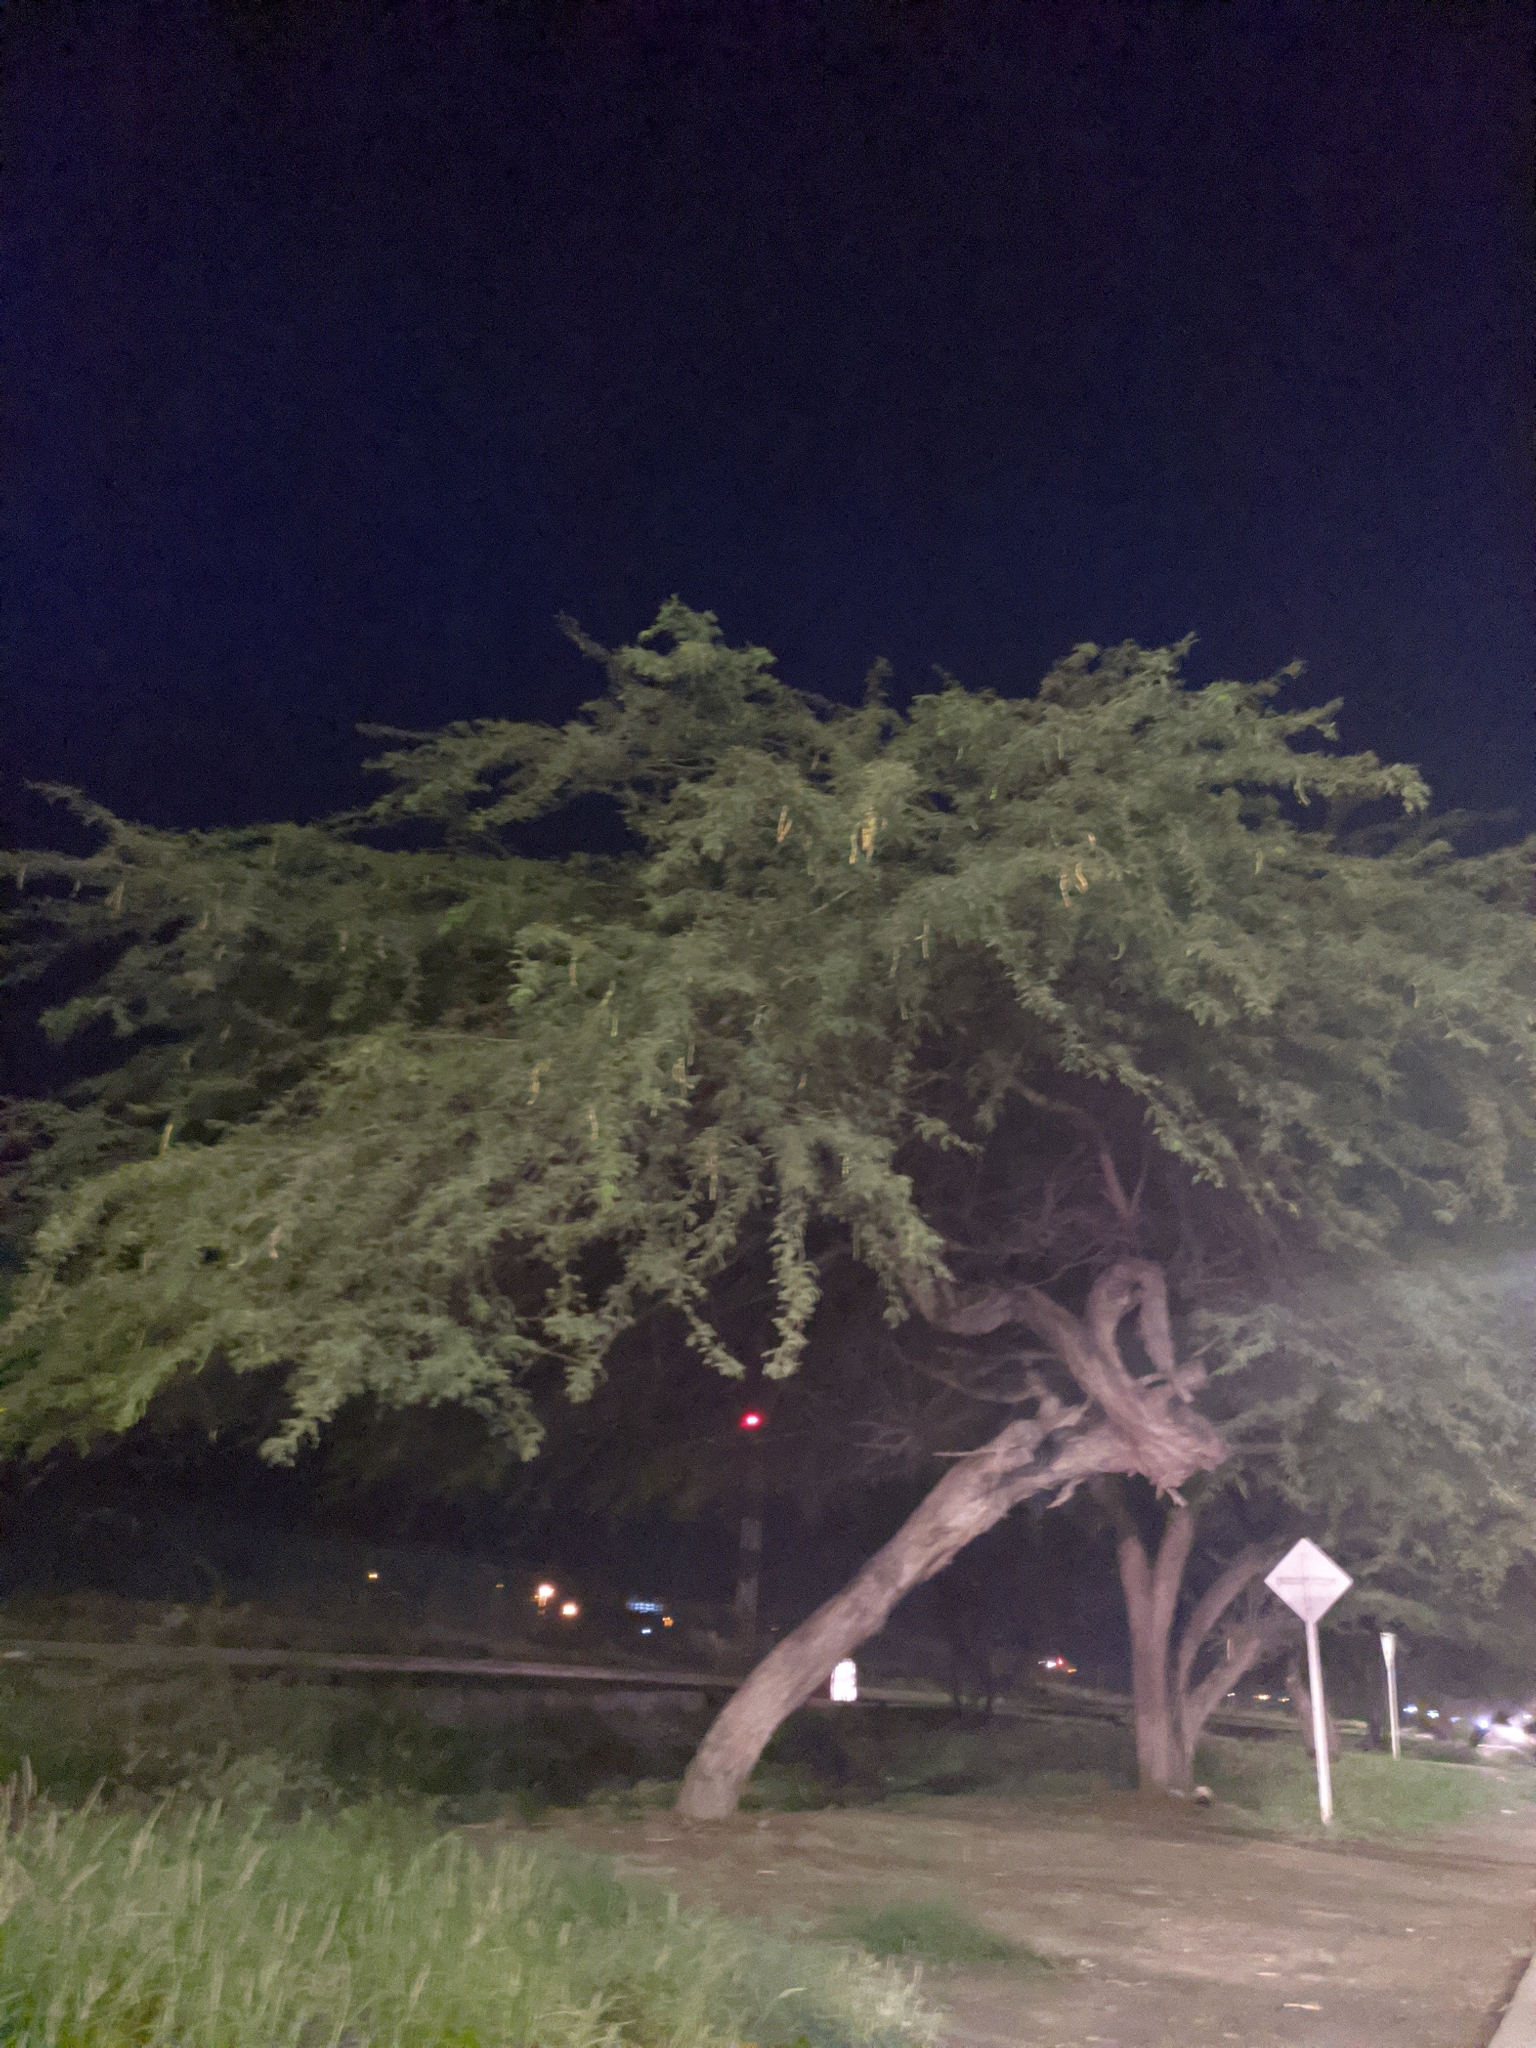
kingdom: Plantae
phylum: Tracheophyta
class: Magnoliopsida
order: Fabales
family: Fabaceae
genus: Prosopis
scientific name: Prosopis juliflora
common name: Mesquite
